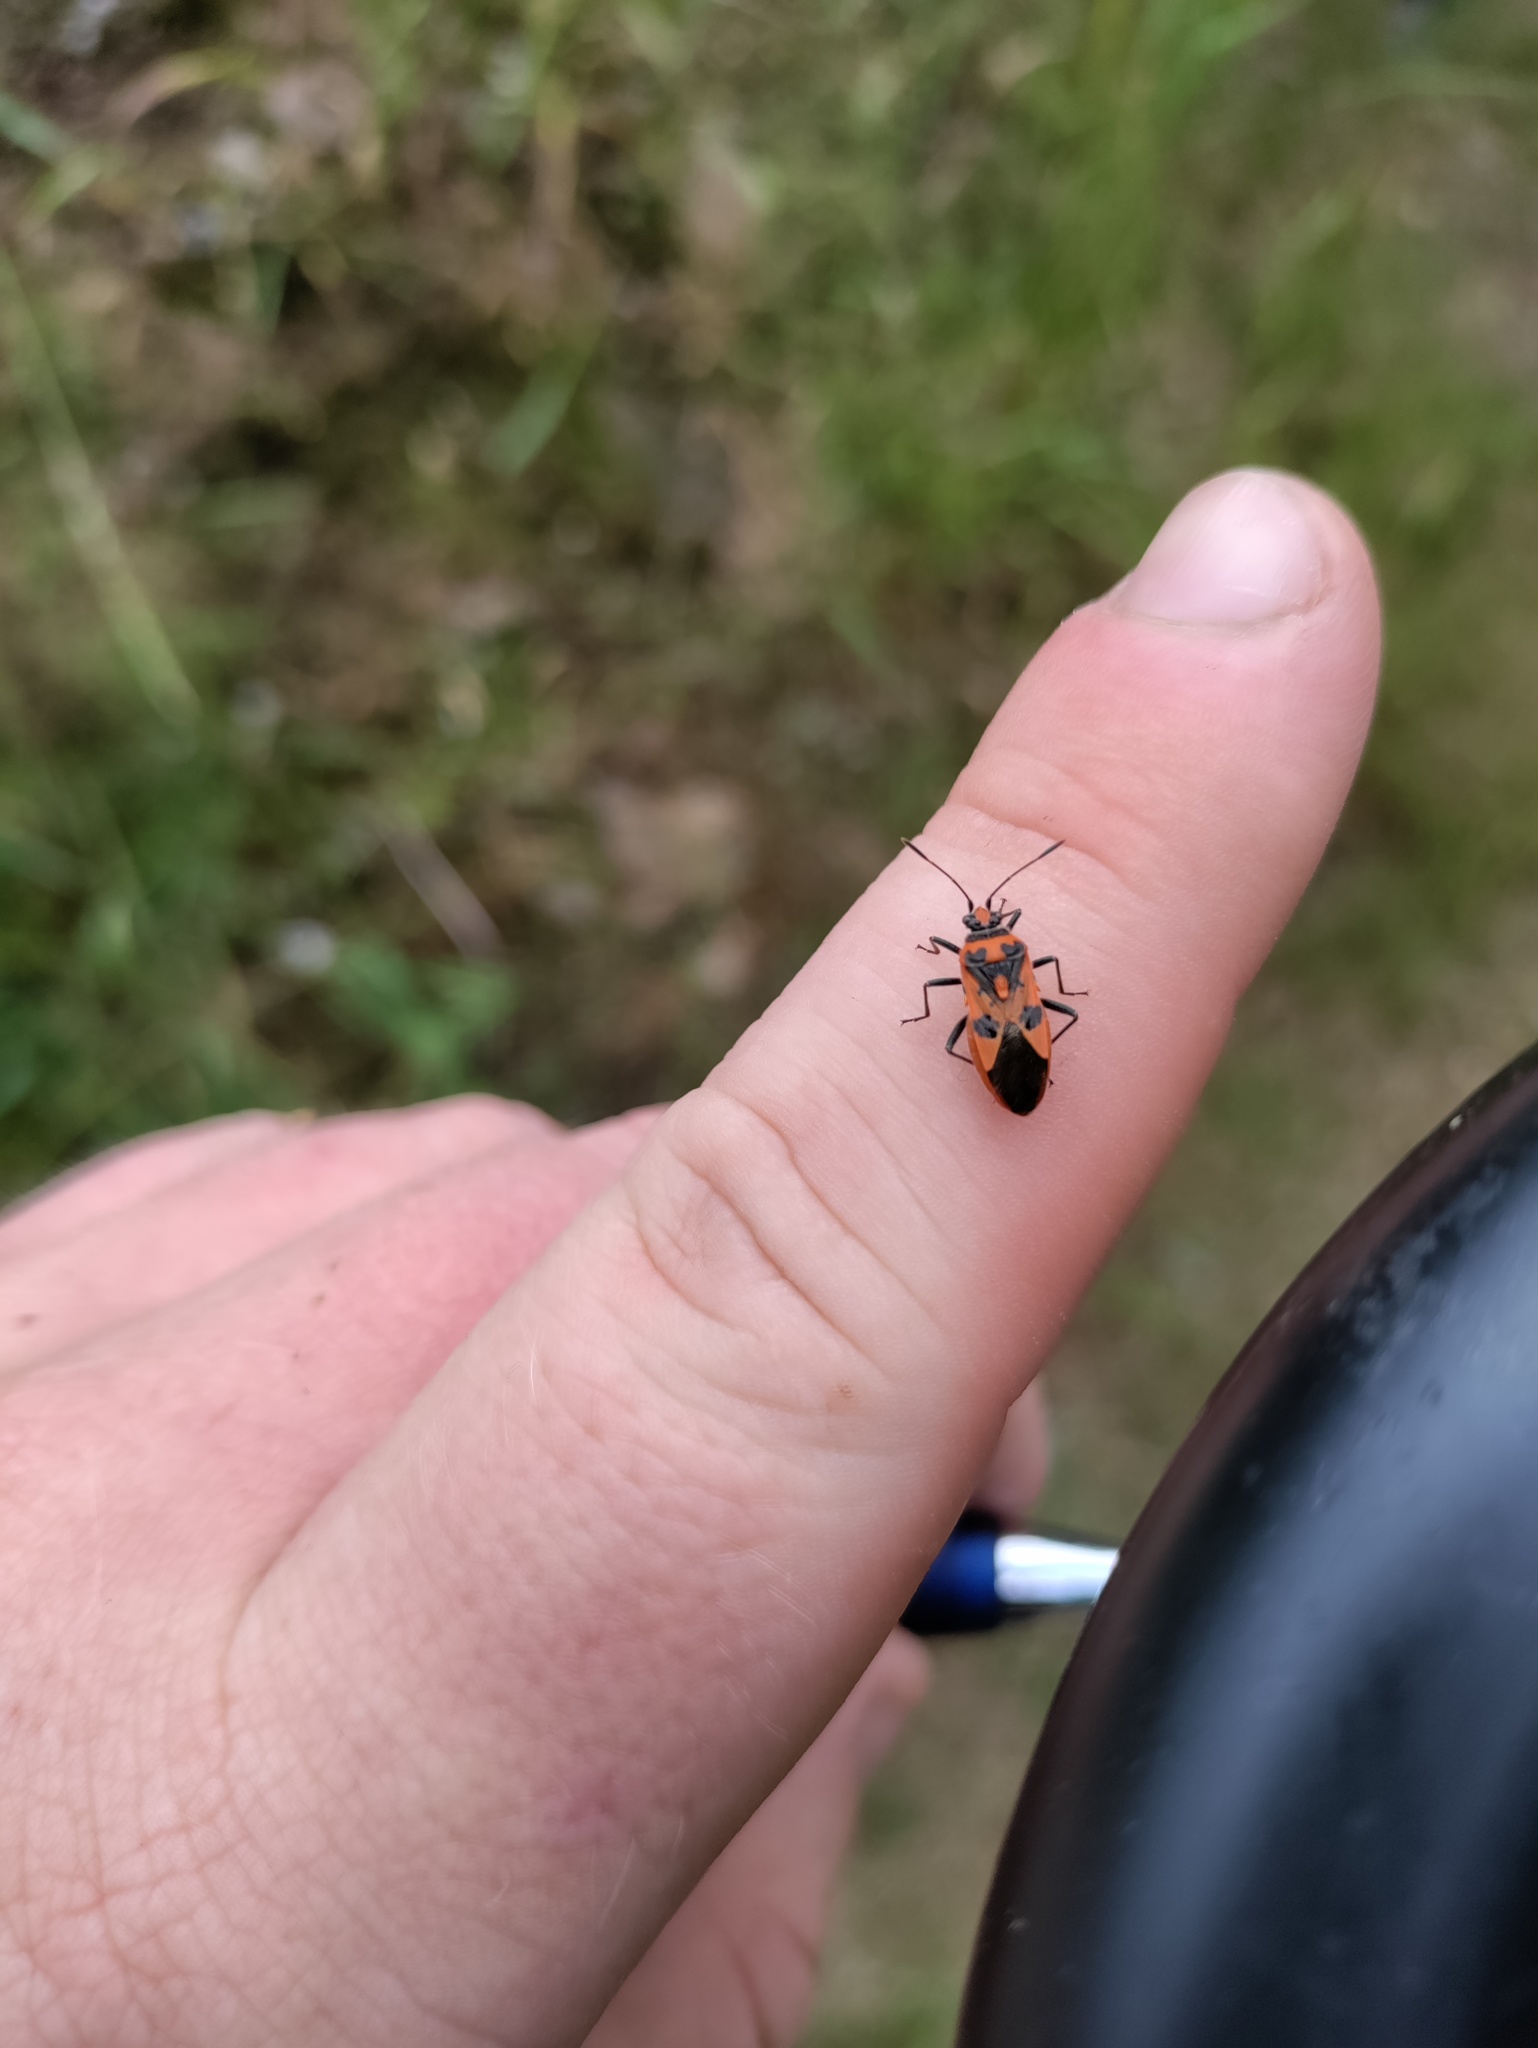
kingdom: Animalia
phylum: Arthropoda
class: Insecta
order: Hemiptera
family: Rhopalidae
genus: Corizus
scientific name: Corizus hyoscyami
